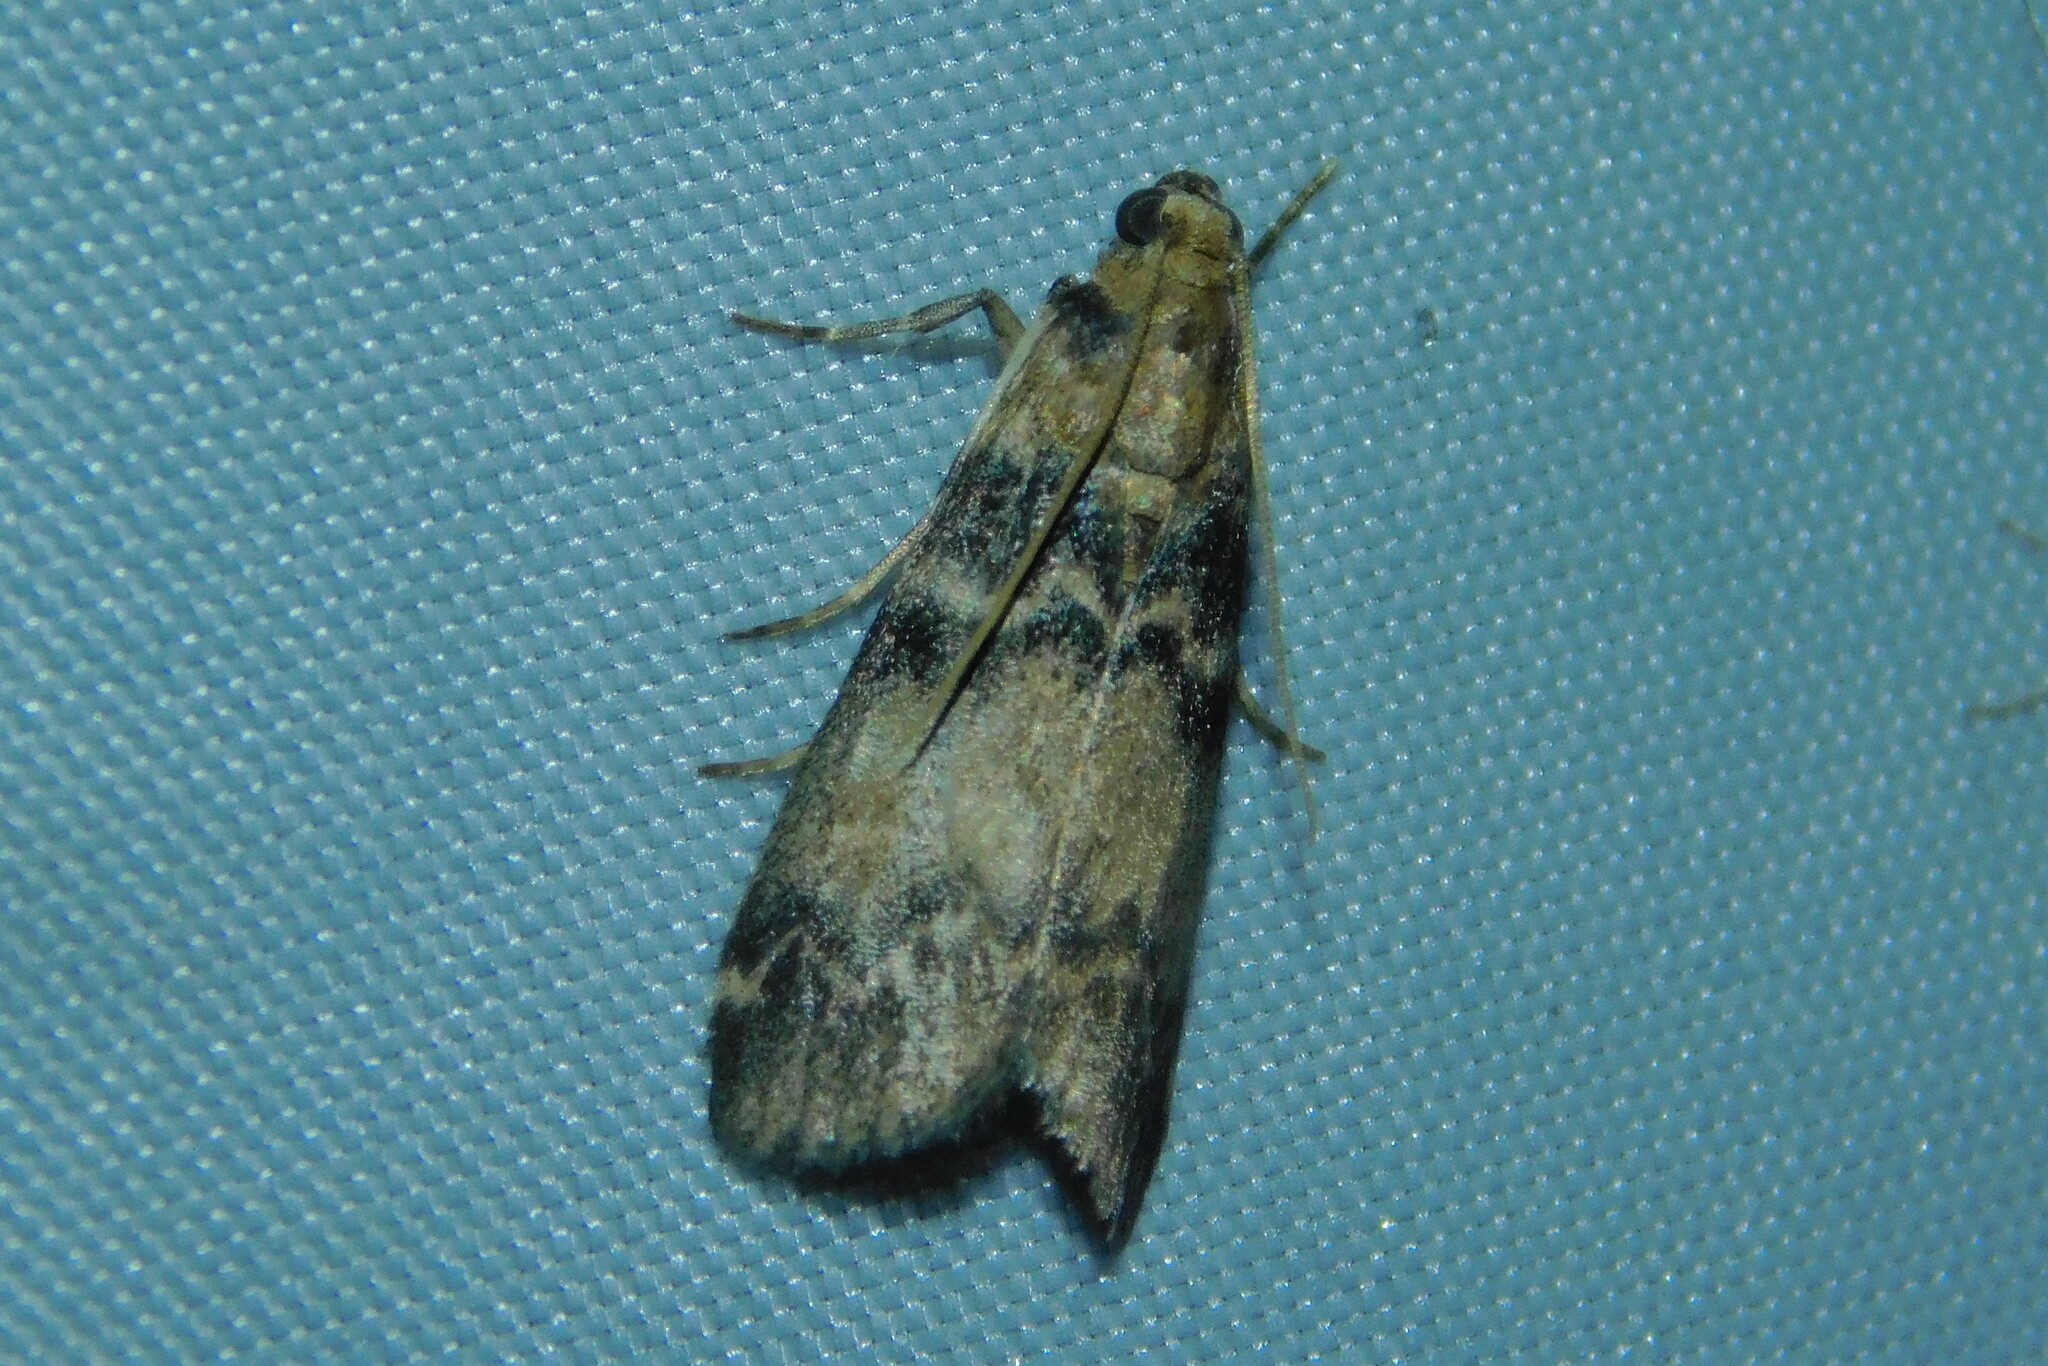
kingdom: Animalia
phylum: Arthropoda
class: Insecta
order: Lepidoptera
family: Pyralidae
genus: Euzophera
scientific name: Euzophera pinguis
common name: Ash-bark knot-horn
